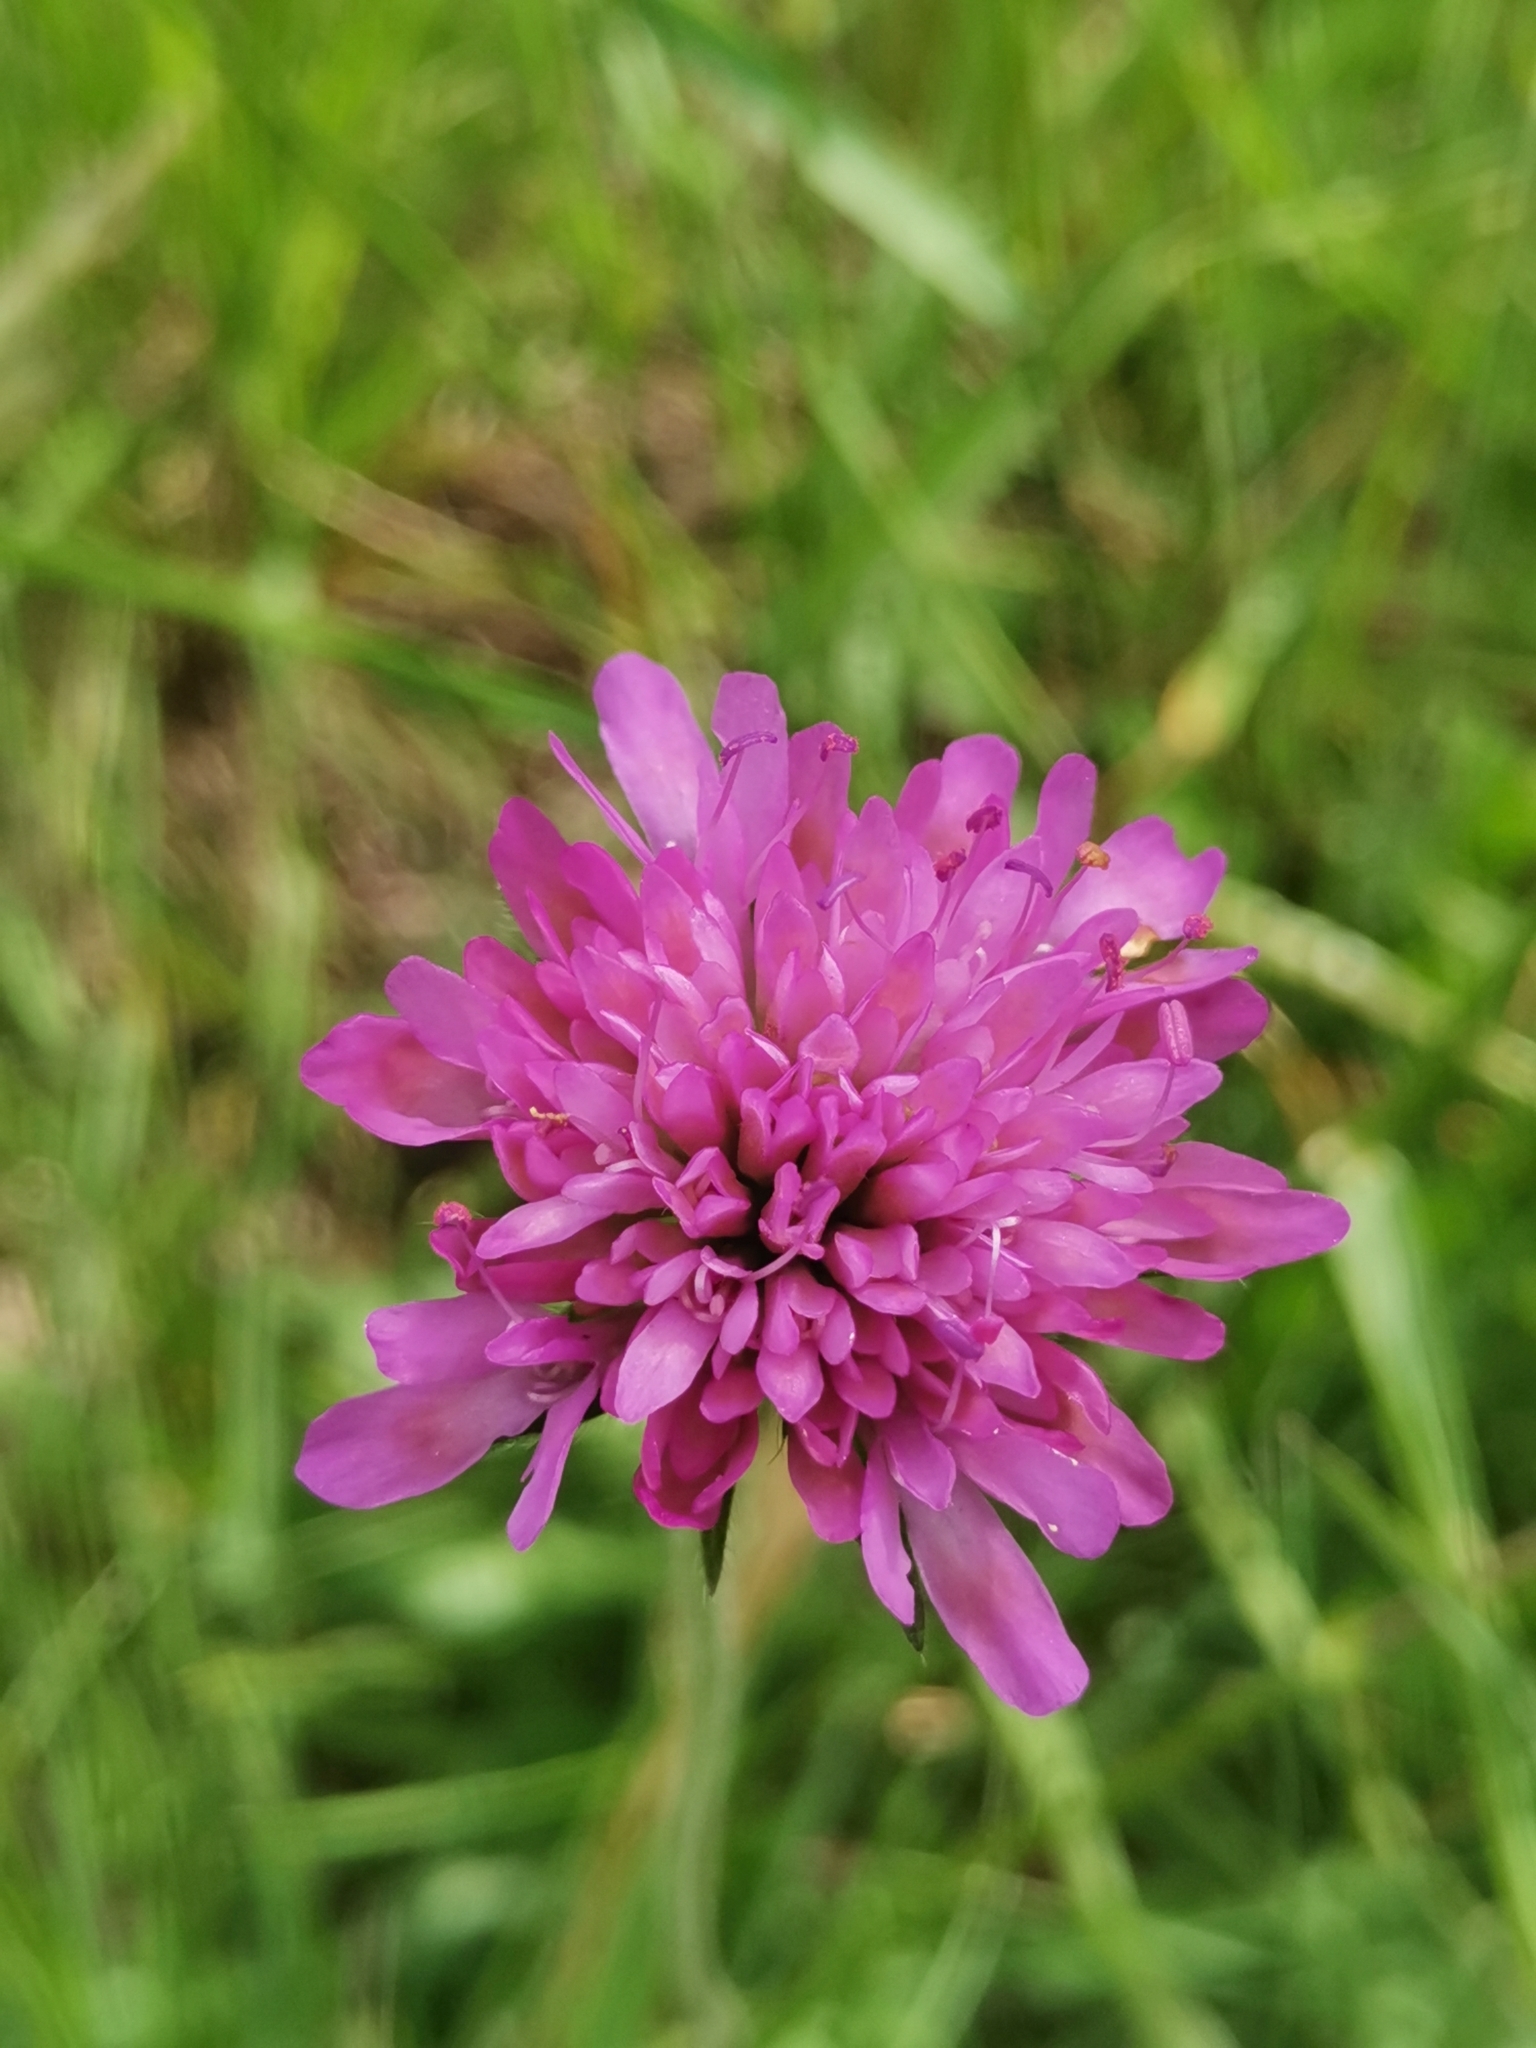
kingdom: Plantae
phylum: Tracheophyta
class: Magnoliopsida
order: Dipsacales
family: Caprifoliaceae
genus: Knautia
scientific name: Knautia illyrica
